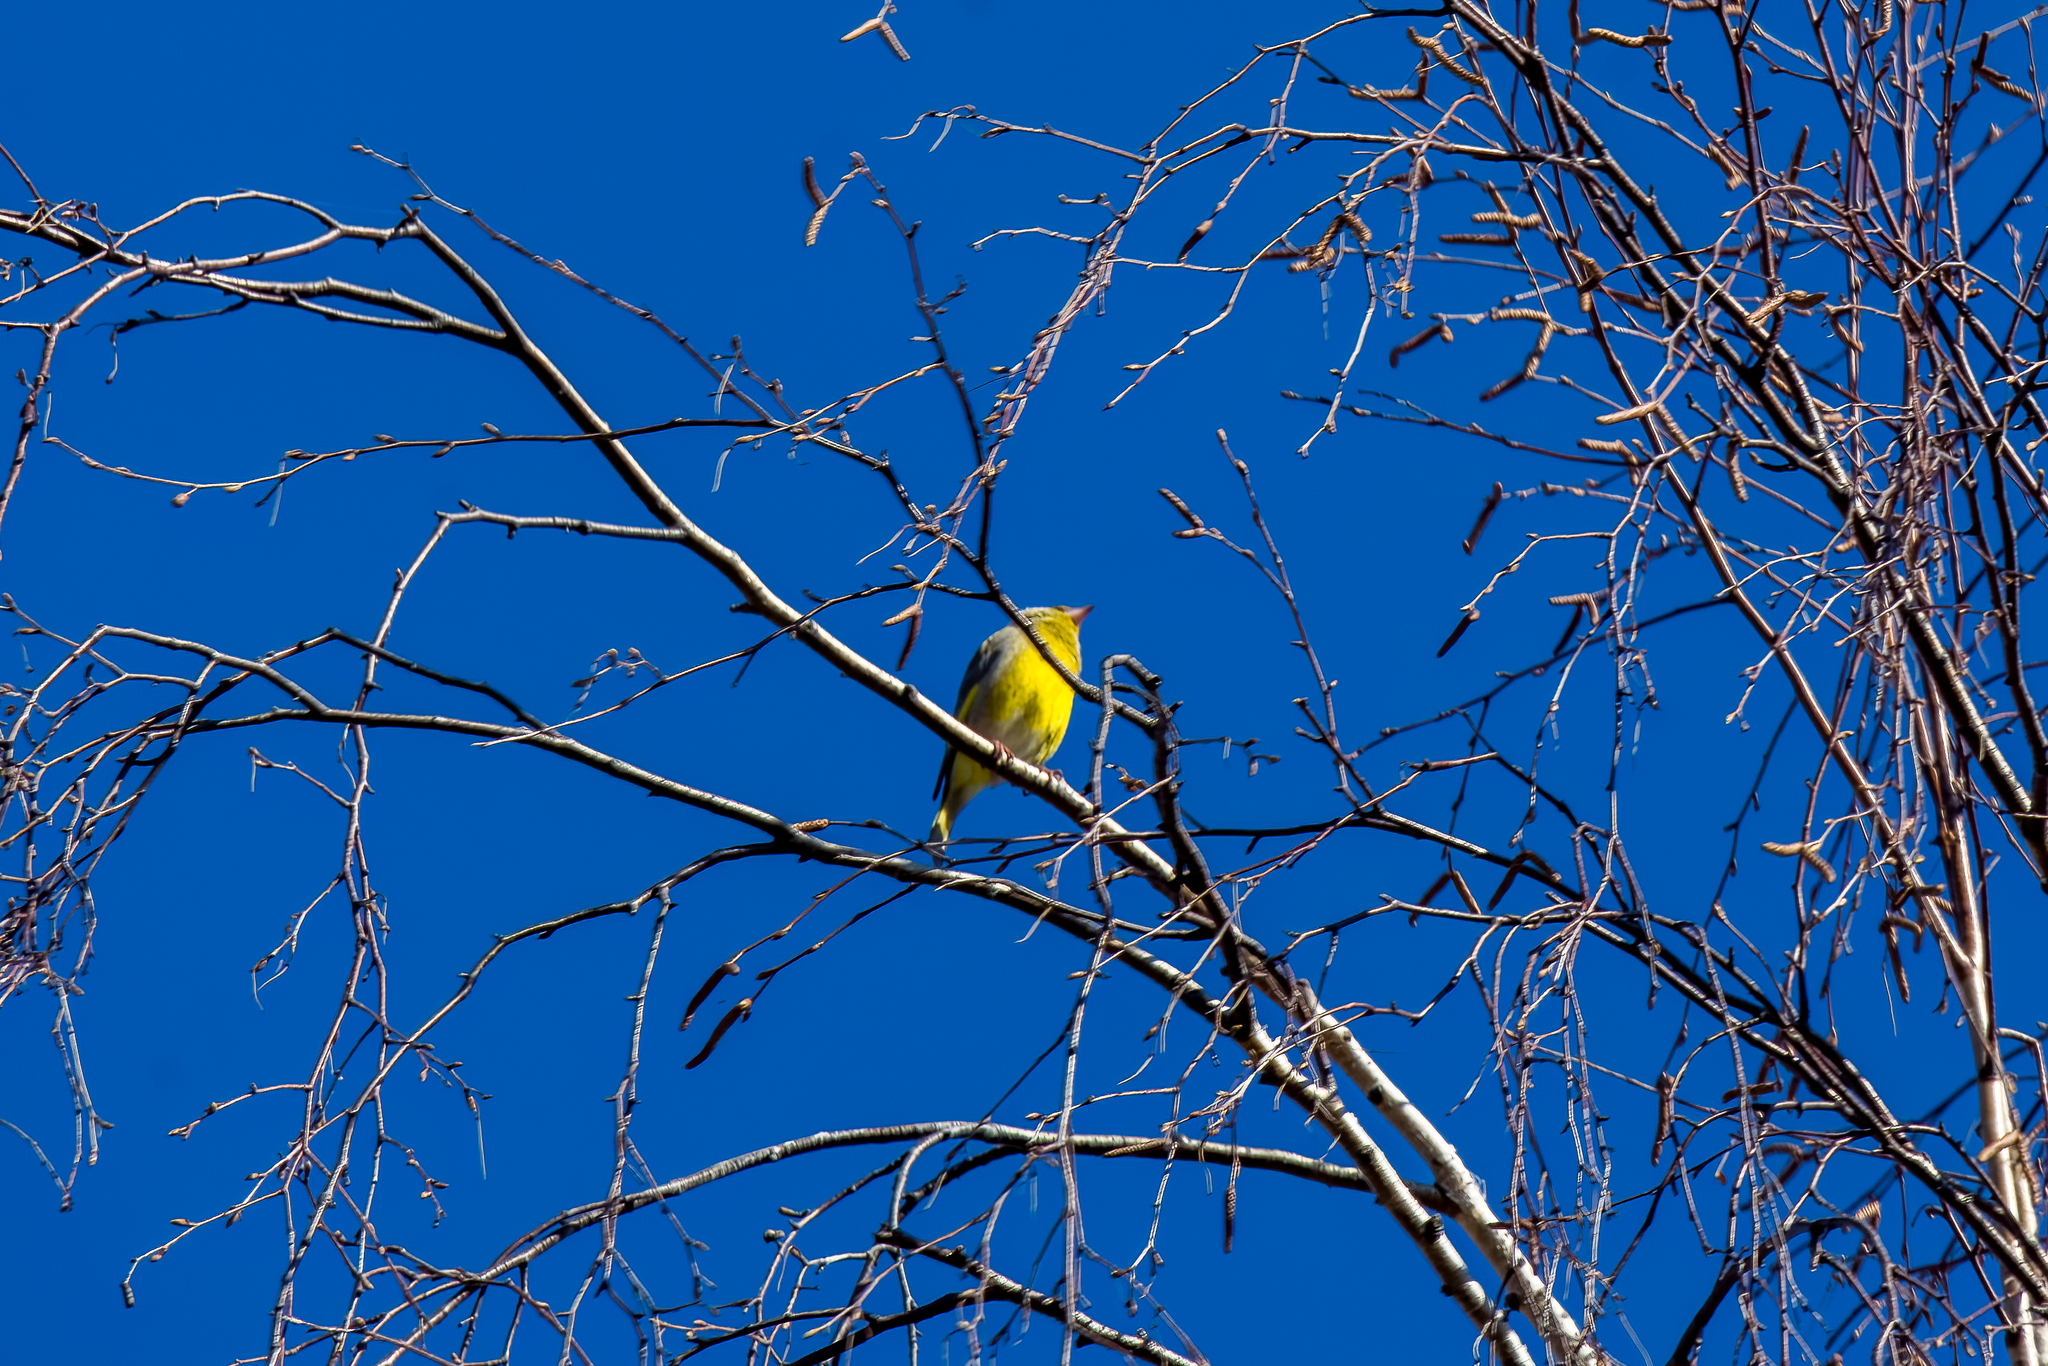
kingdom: Plantae
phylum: Tracheophyta
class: Liliopsida
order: Poales
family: Poaceae
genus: Chloris
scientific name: Chloris chloris
